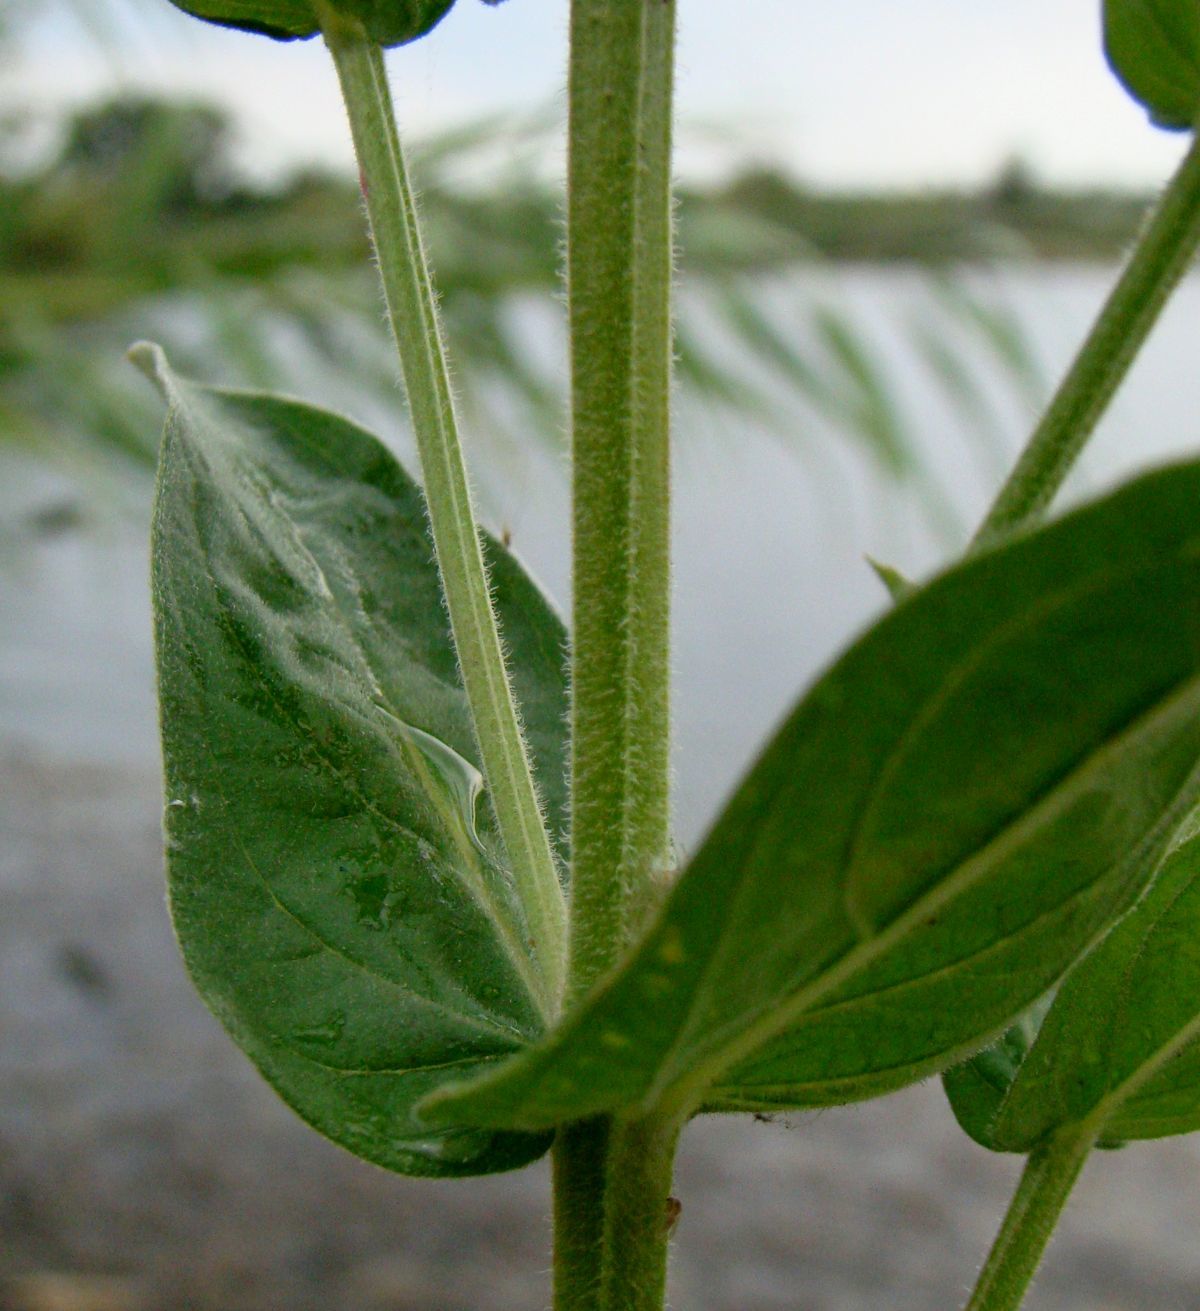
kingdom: Plantae
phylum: Tracheophyta
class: Magnoliopsida
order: Myrtales
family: Lythraceae
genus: Lythrum
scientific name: Lythrum salicaria
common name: Purple loosestrife
